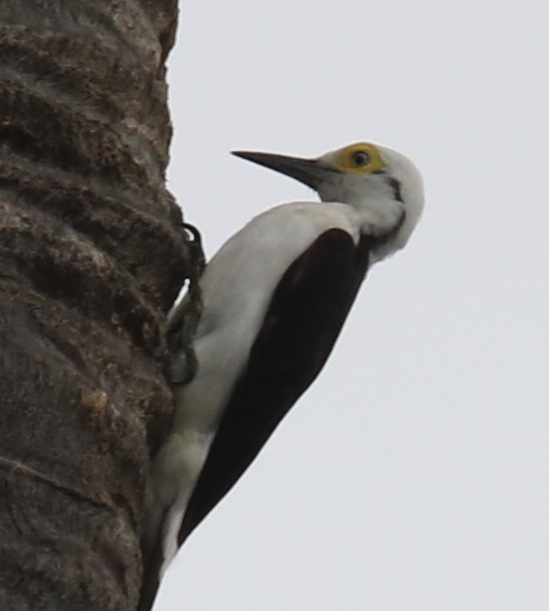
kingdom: Animalia
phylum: Chordata
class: Aves
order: Piciformes
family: Picidae
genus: Melanerpes
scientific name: Melanerpes candidus
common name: White woodpecker
